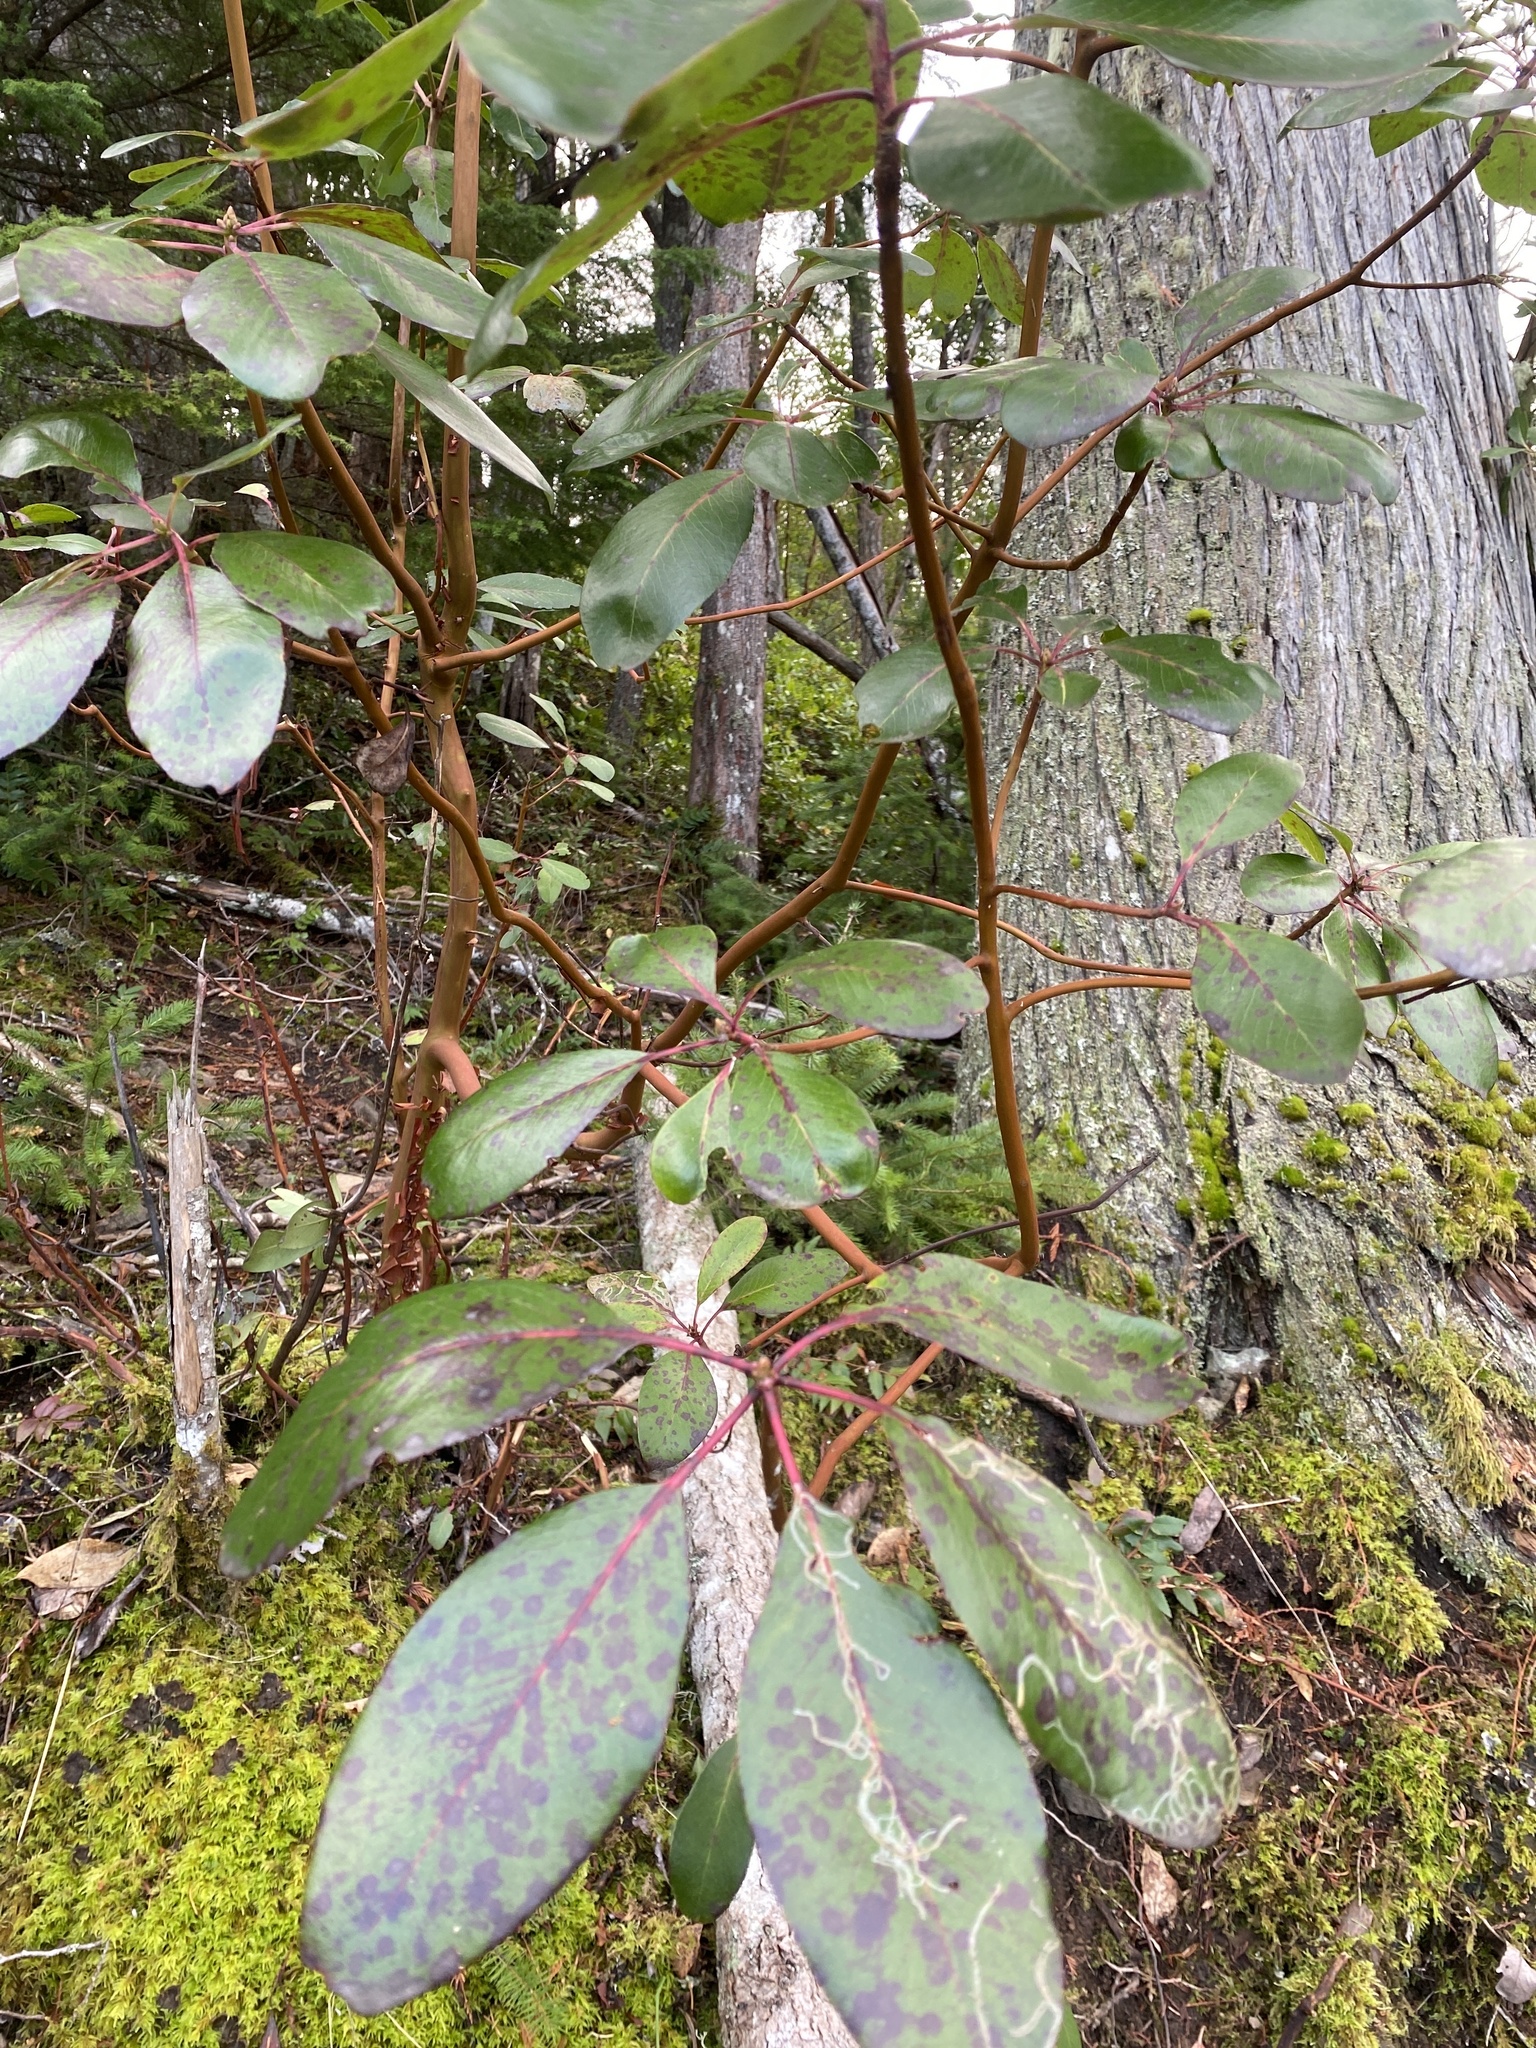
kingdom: Plantae
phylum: Tracheophyta
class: Magnoliopsida
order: Ericales
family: Ericaceae
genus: Arbutus
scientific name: Arbutus menziesii
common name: Pacific madrone
